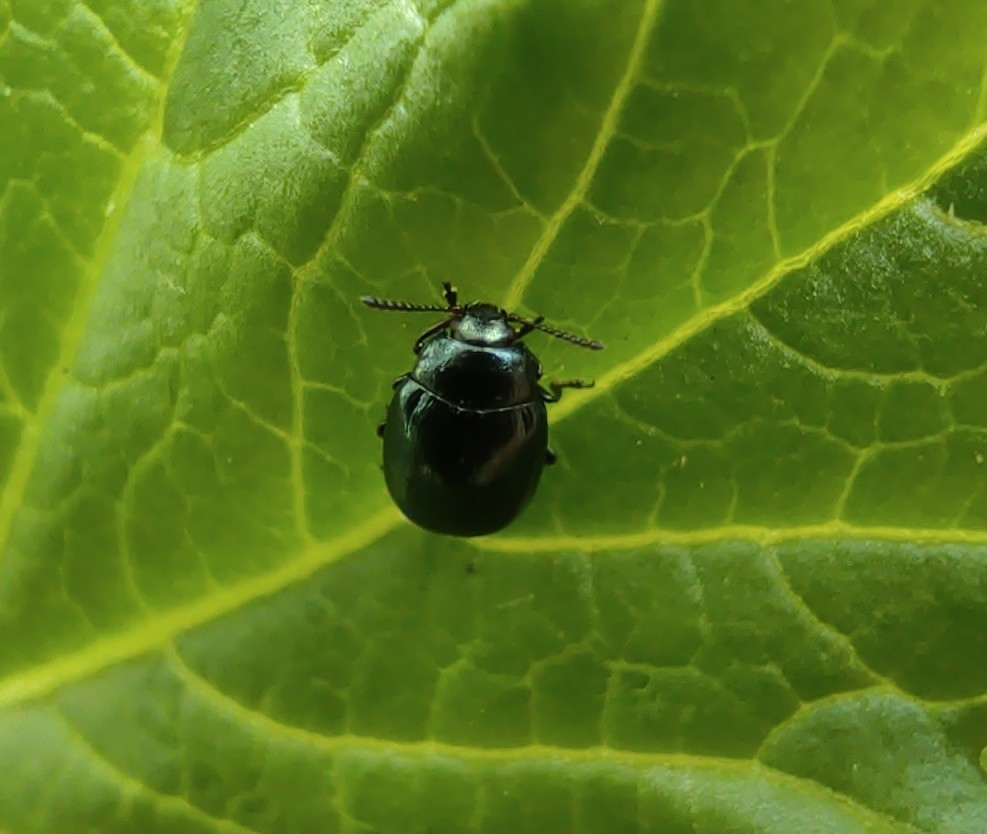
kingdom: Animalia
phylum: Arthropoda
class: Insecta
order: Coleoptera
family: Chrysomelidae
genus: Plagiodera
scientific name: Plagiodera versicolora
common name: Imported willow leaf beetle
